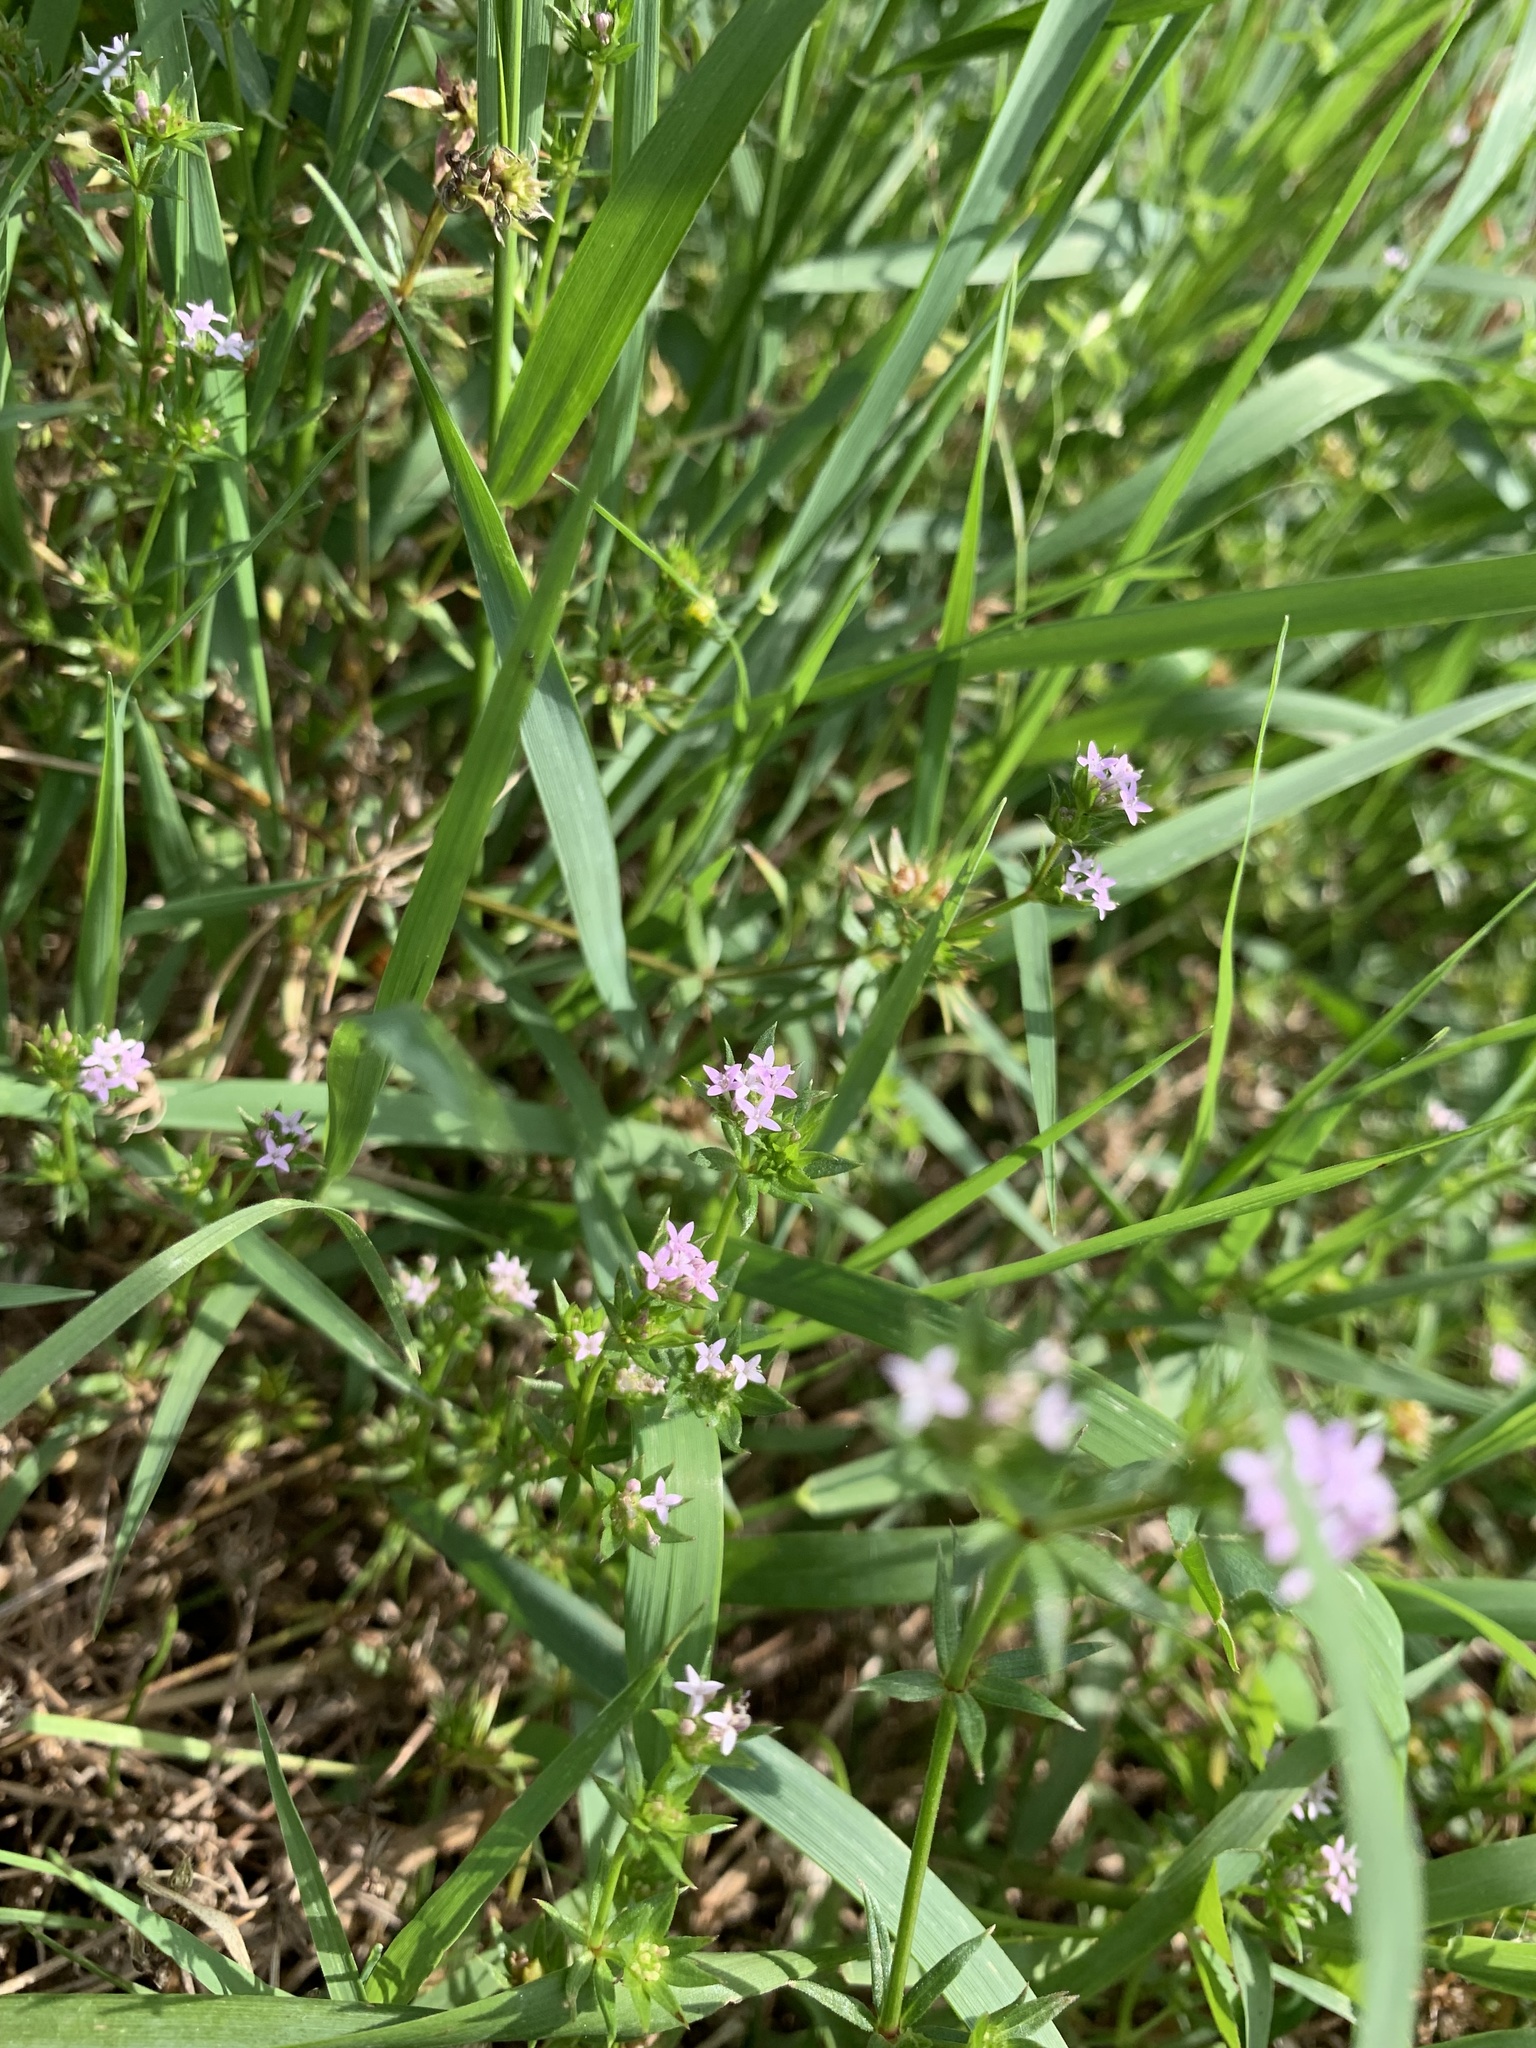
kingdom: Plantae
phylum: Tracheophyta
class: Magnoliopsida
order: Gentianales
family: Rubiaceae
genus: Sherardia
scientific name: Sherardia arvensis
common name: Field madder
